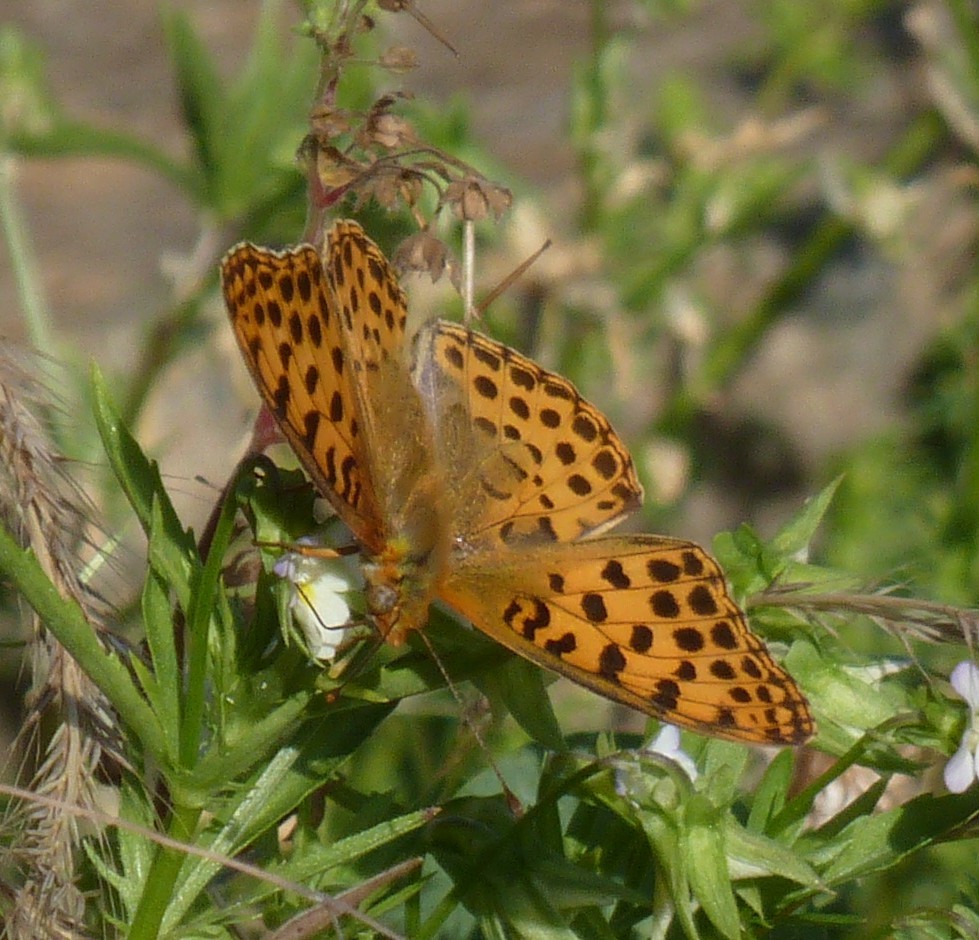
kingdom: Animalia
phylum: Arthropoda
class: Insecta
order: Lepidoptera
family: Nymphalidae
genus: Issoria
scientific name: Issoria lathonia
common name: Queen of spain fritillary
